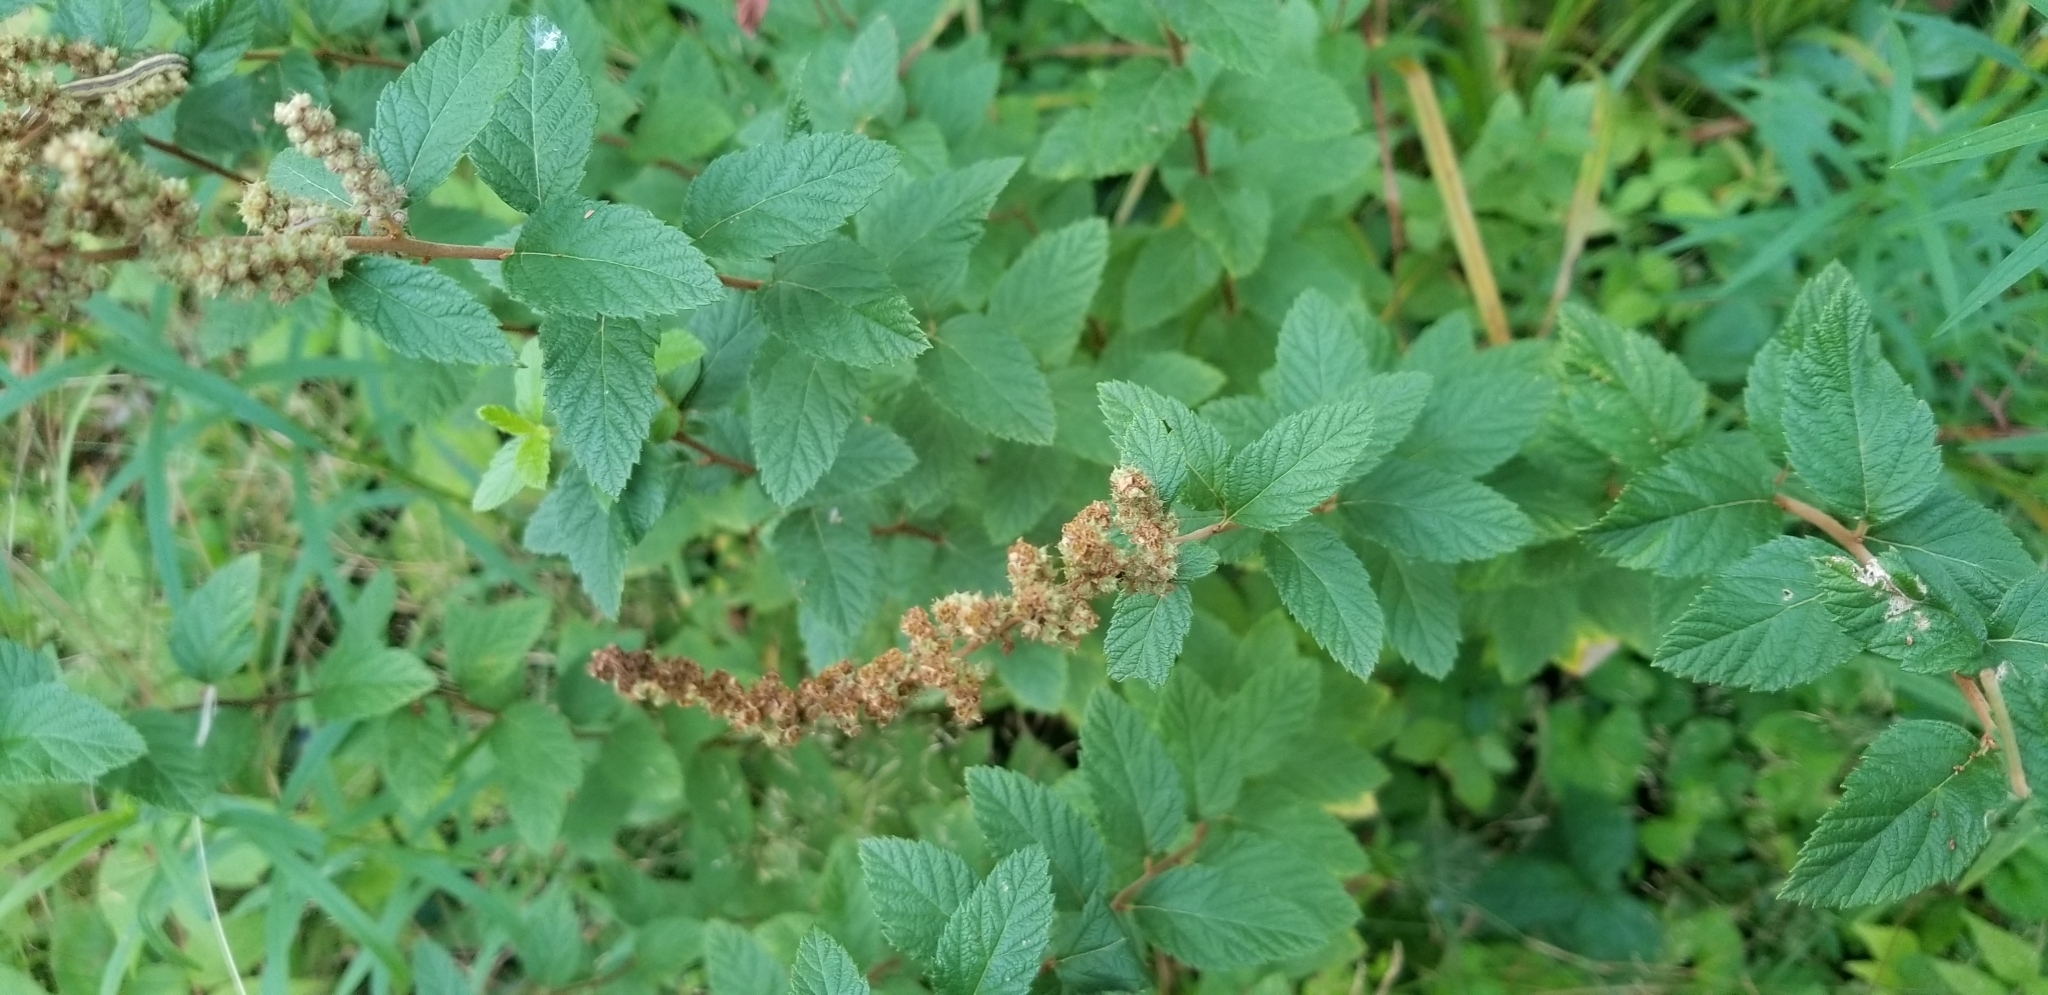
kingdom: Plantae
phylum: Tracheophyta
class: Magnoliopsida
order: Rosales
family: Rosaceae
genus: Spiraea
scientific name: Spiraea tomentosa
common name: Hardhack
